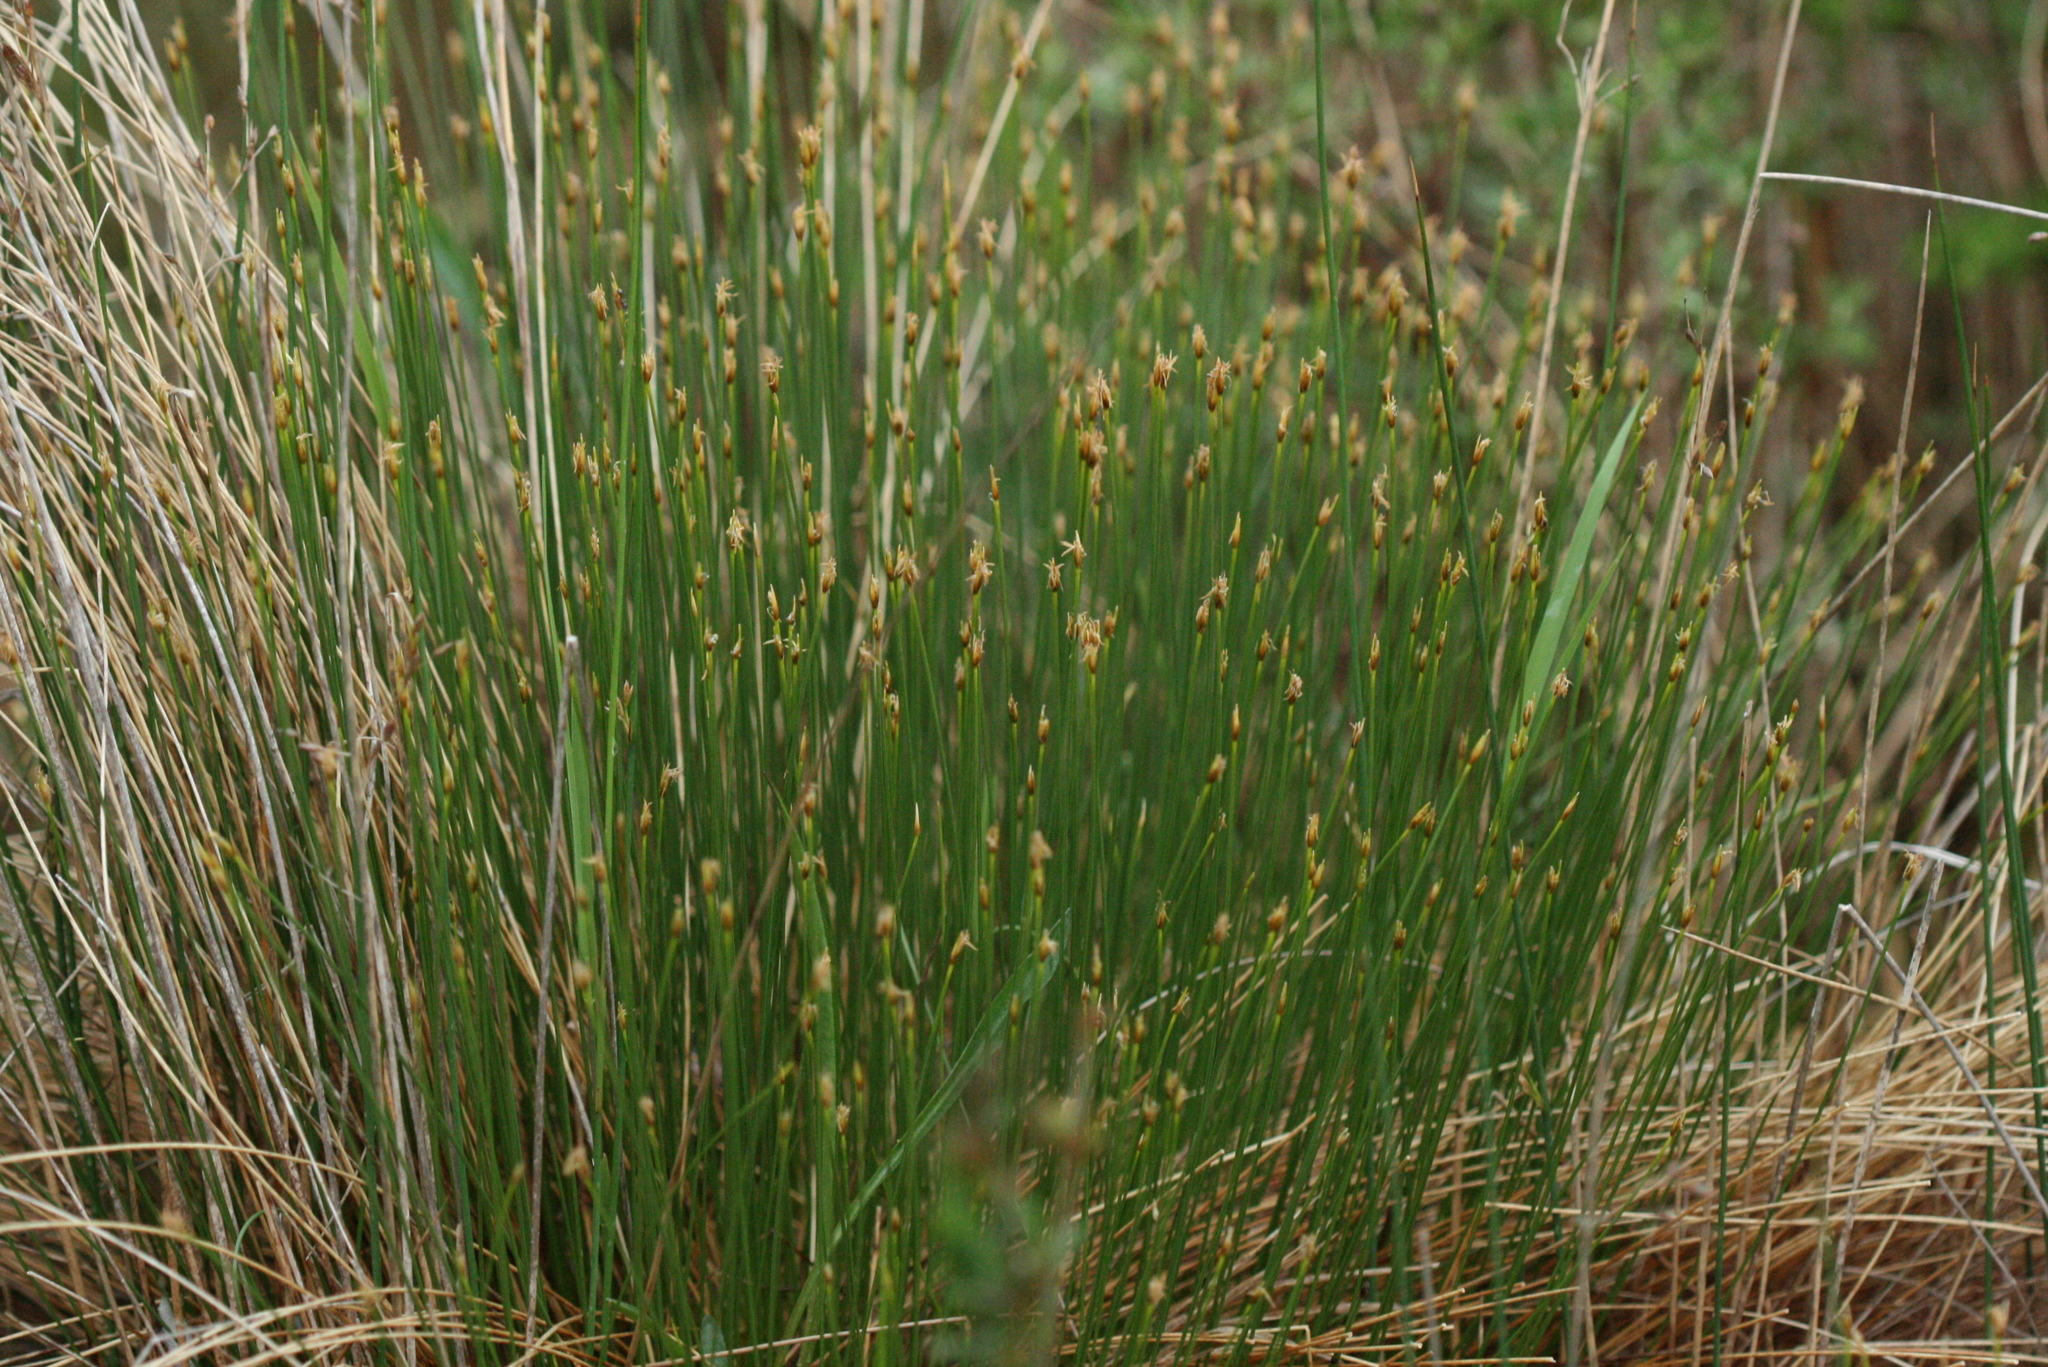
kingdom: Plantae
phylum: Tracheophyta
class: Liliopsida
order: Poales
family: Cyperaceae
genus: Trichophorum
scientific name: Trichophorum cespitosum
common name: Cespitose bulrush
